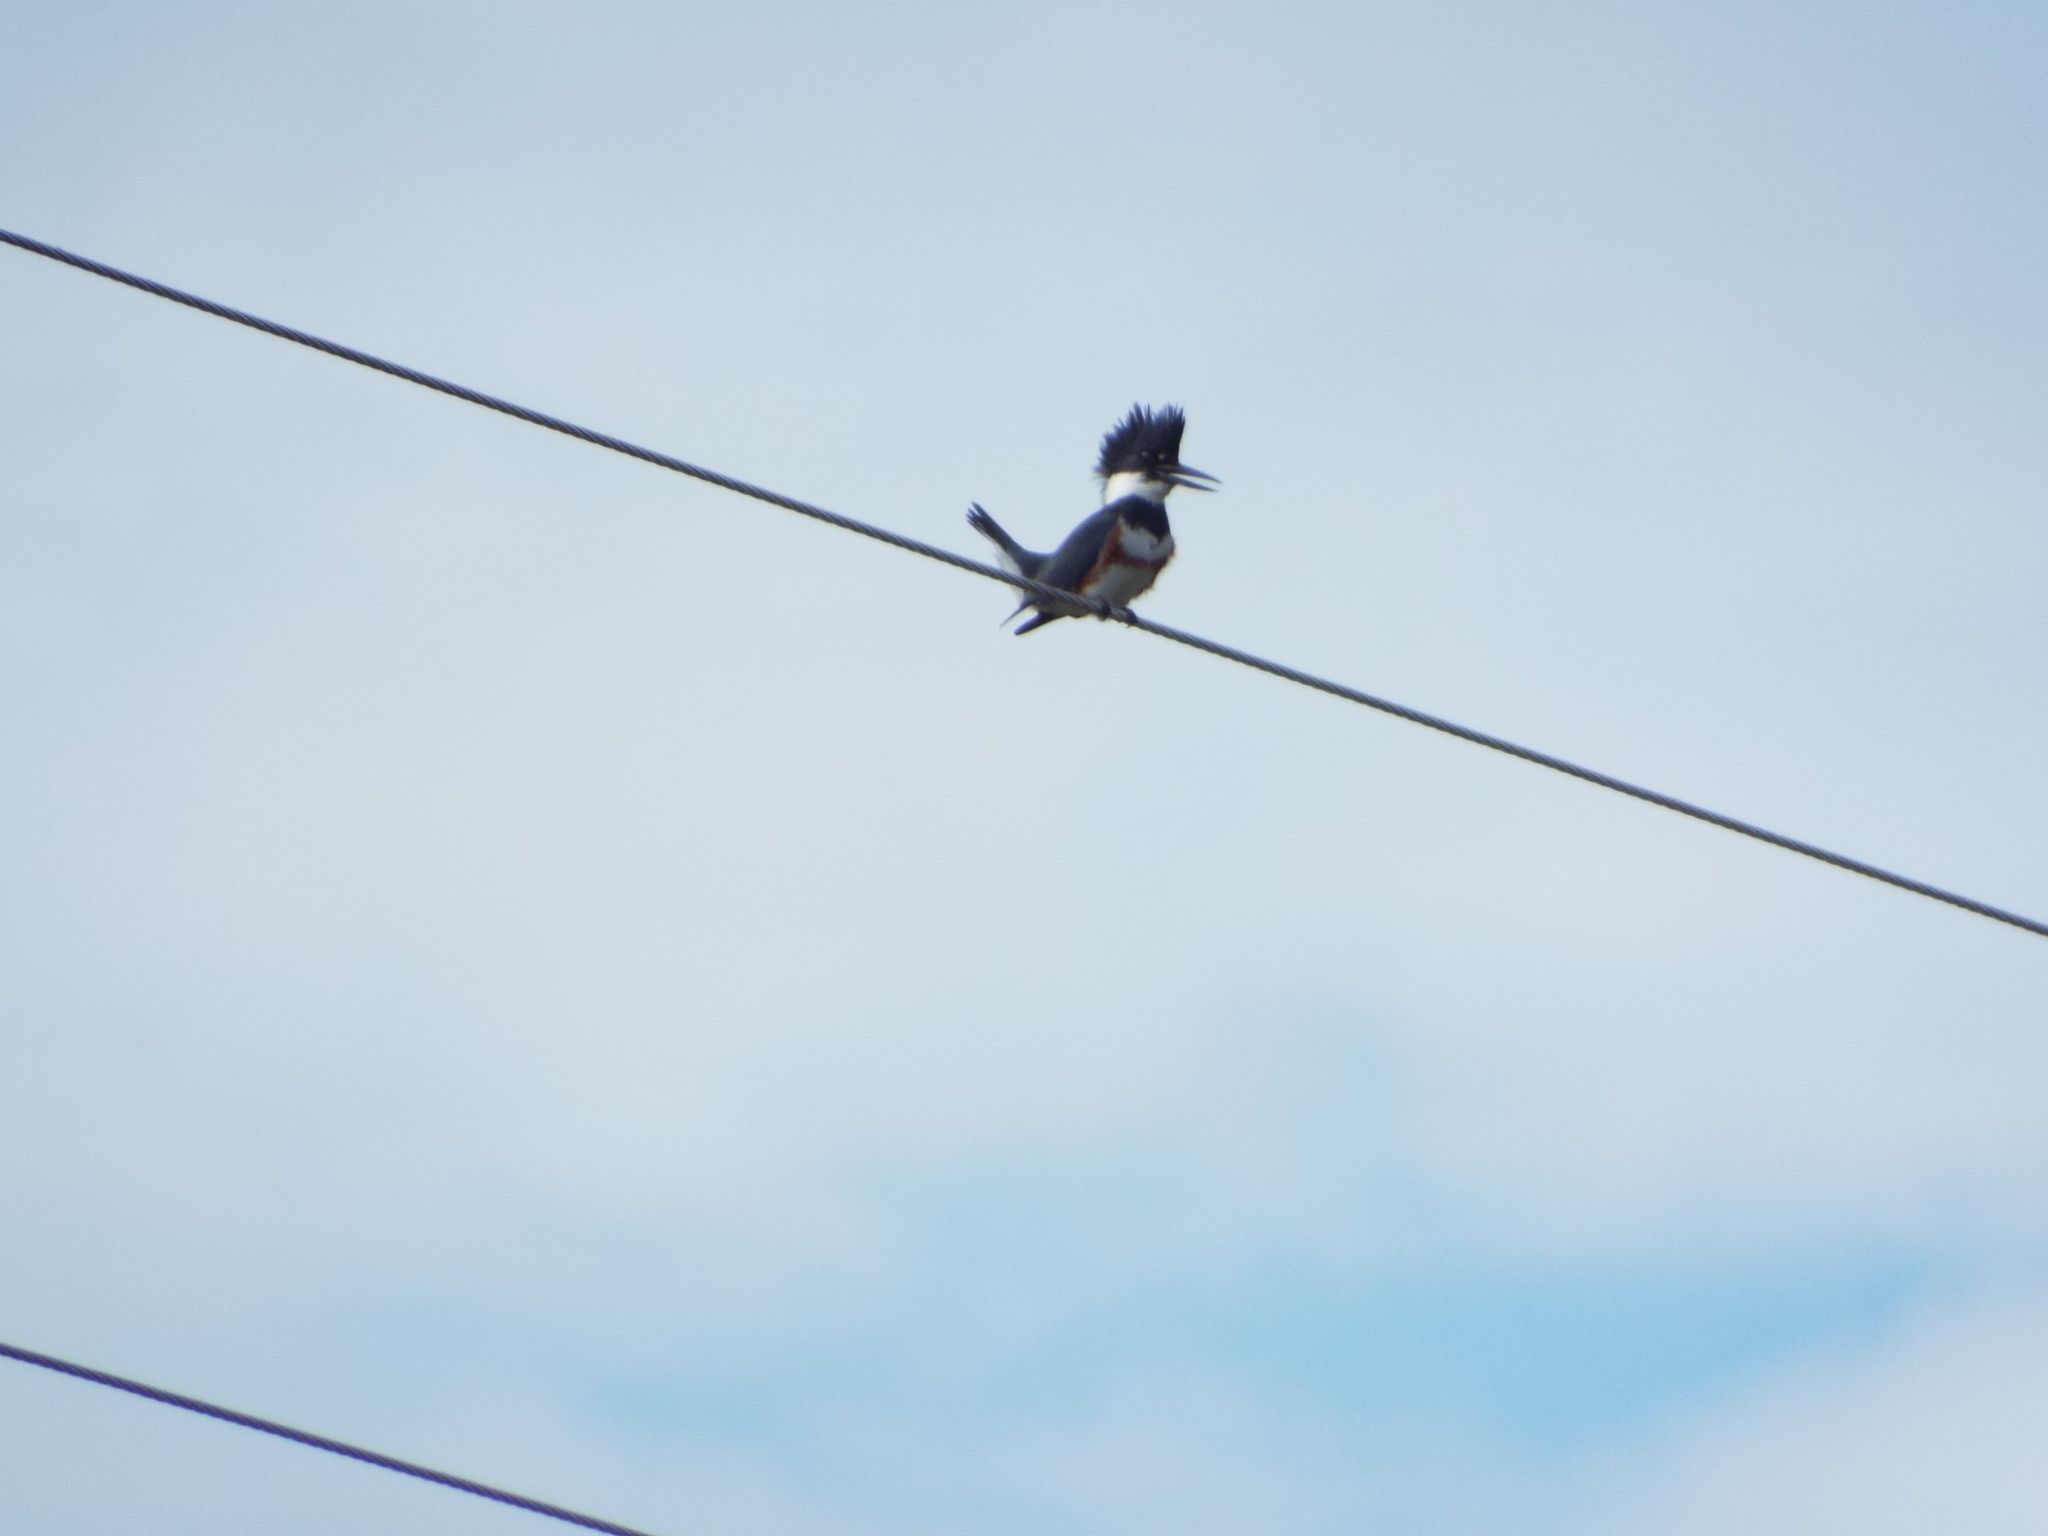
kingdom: Animalia
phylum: Chordata
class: Aves
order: Coraciiformes
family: Alcedinidae
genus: Megaceryle
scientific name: Megaceryle alcyon
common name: Belted kingfisher
